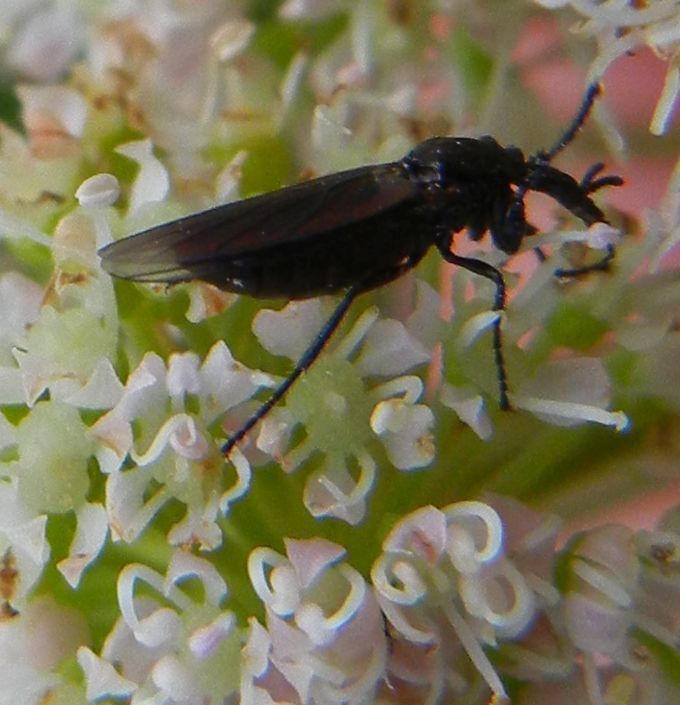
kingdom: Animalia
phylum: Arthropoda
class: Insecta
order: Diptera
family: Bibionidae
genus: Dilophus
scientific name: Dilophus febrilis
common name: Fever fly
